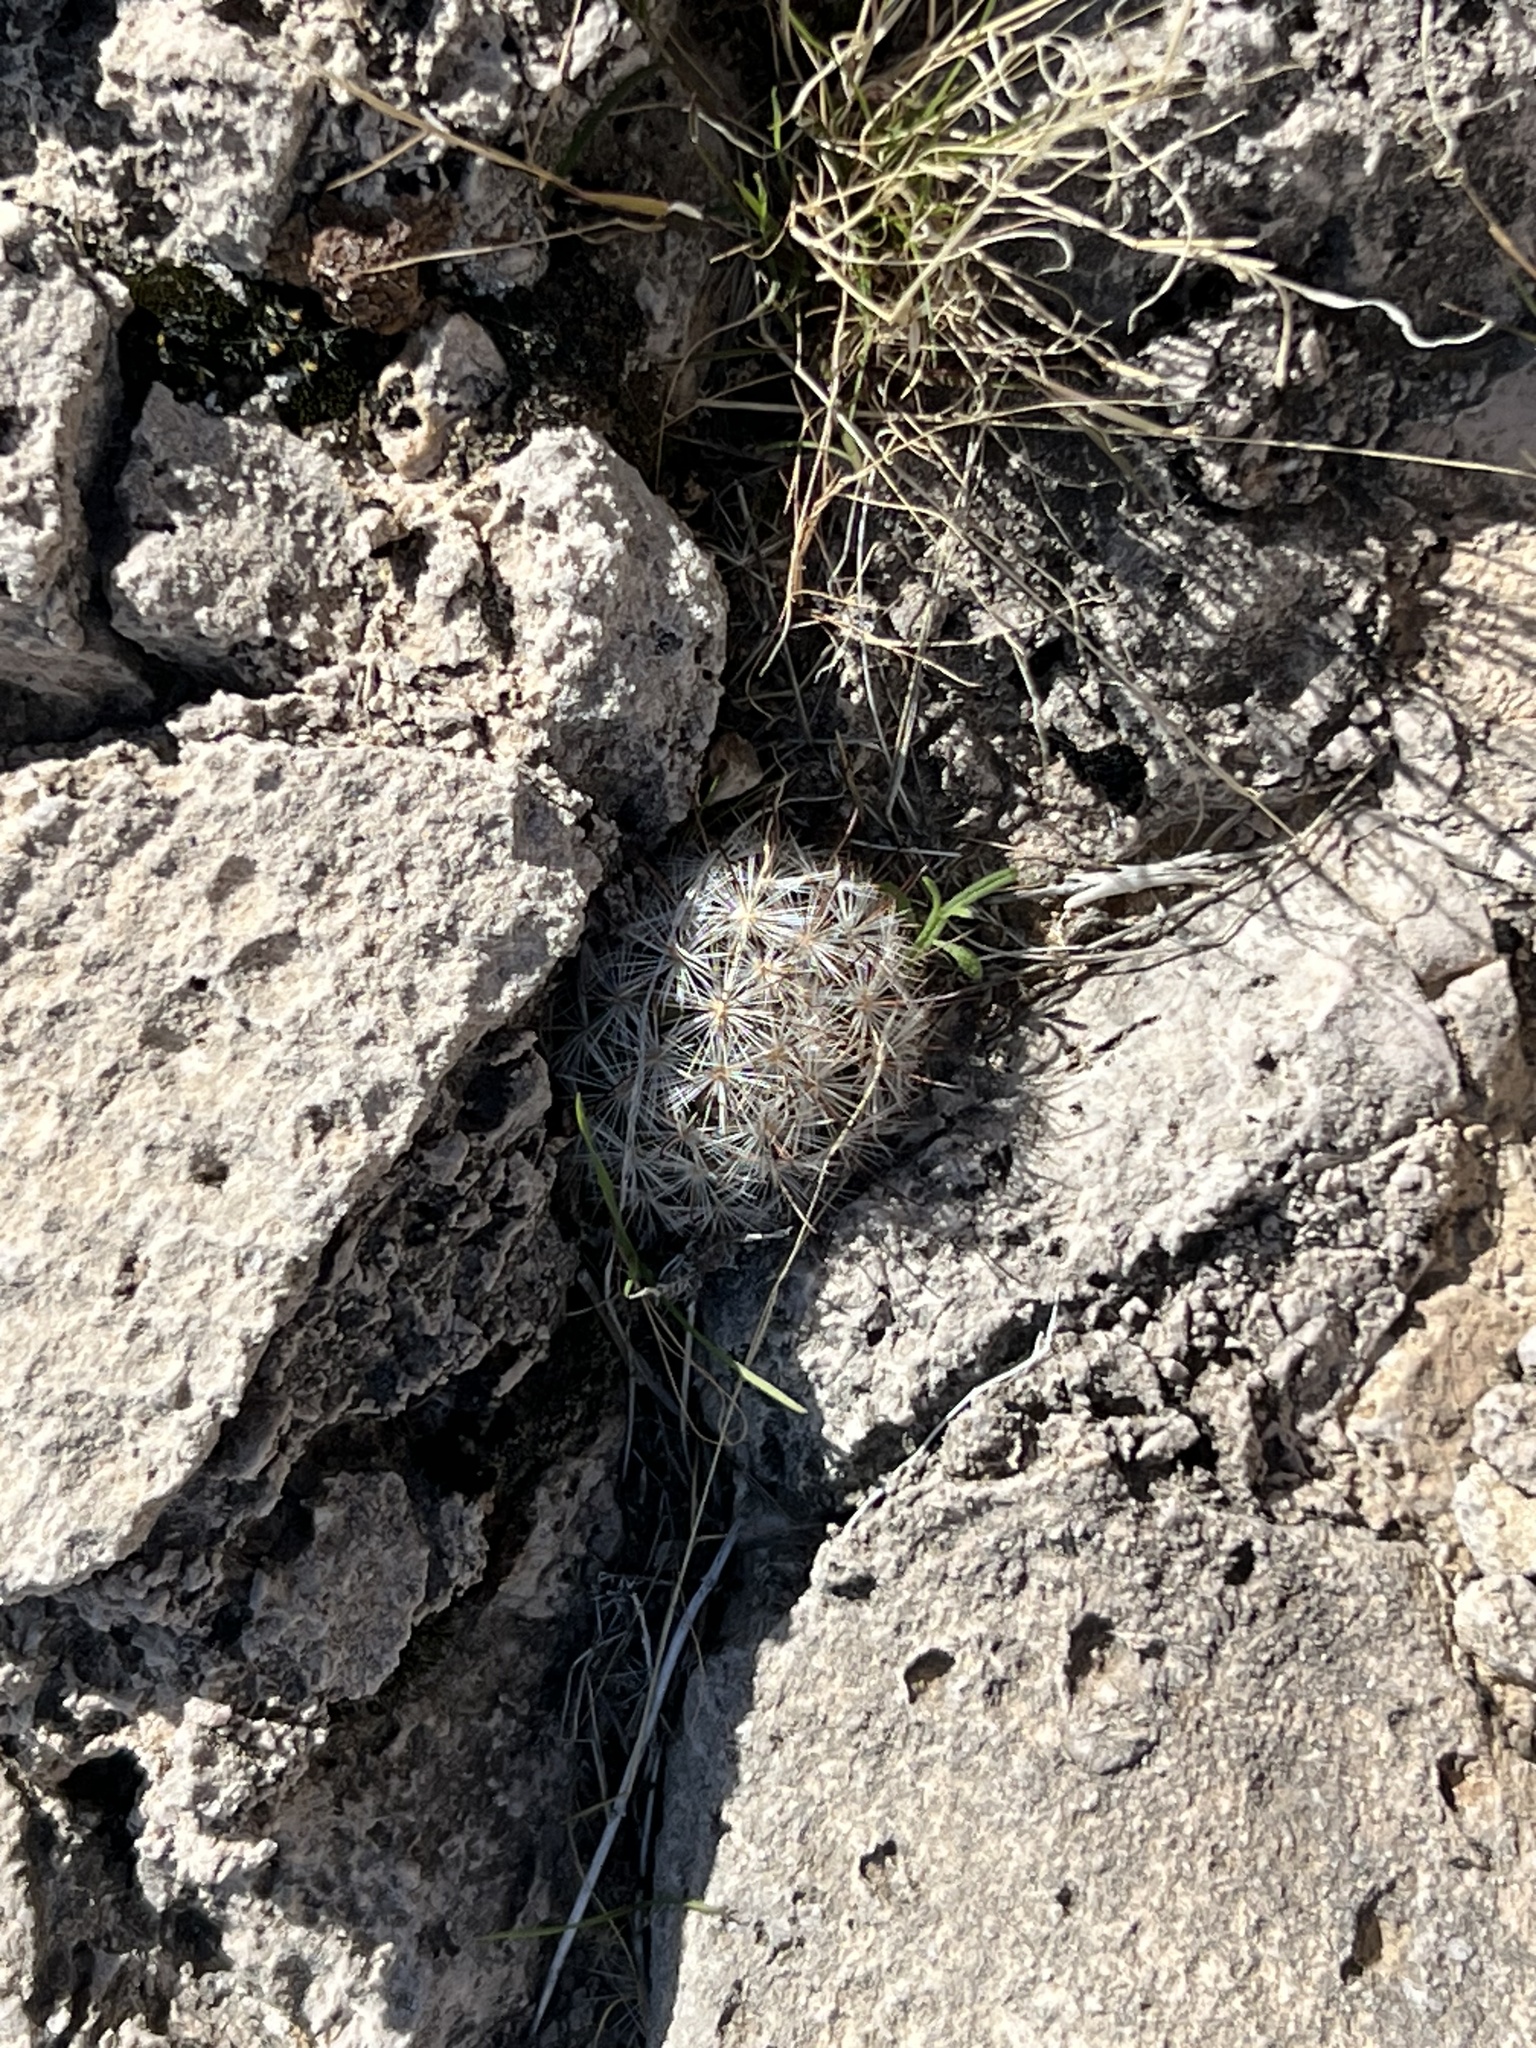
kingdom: Plantae
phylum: Tracheophyta
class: Magnoliopsida
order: Caryophyllales
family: Cactaceae
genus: Cochemiea
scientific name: Cochemiea tetrancistra
